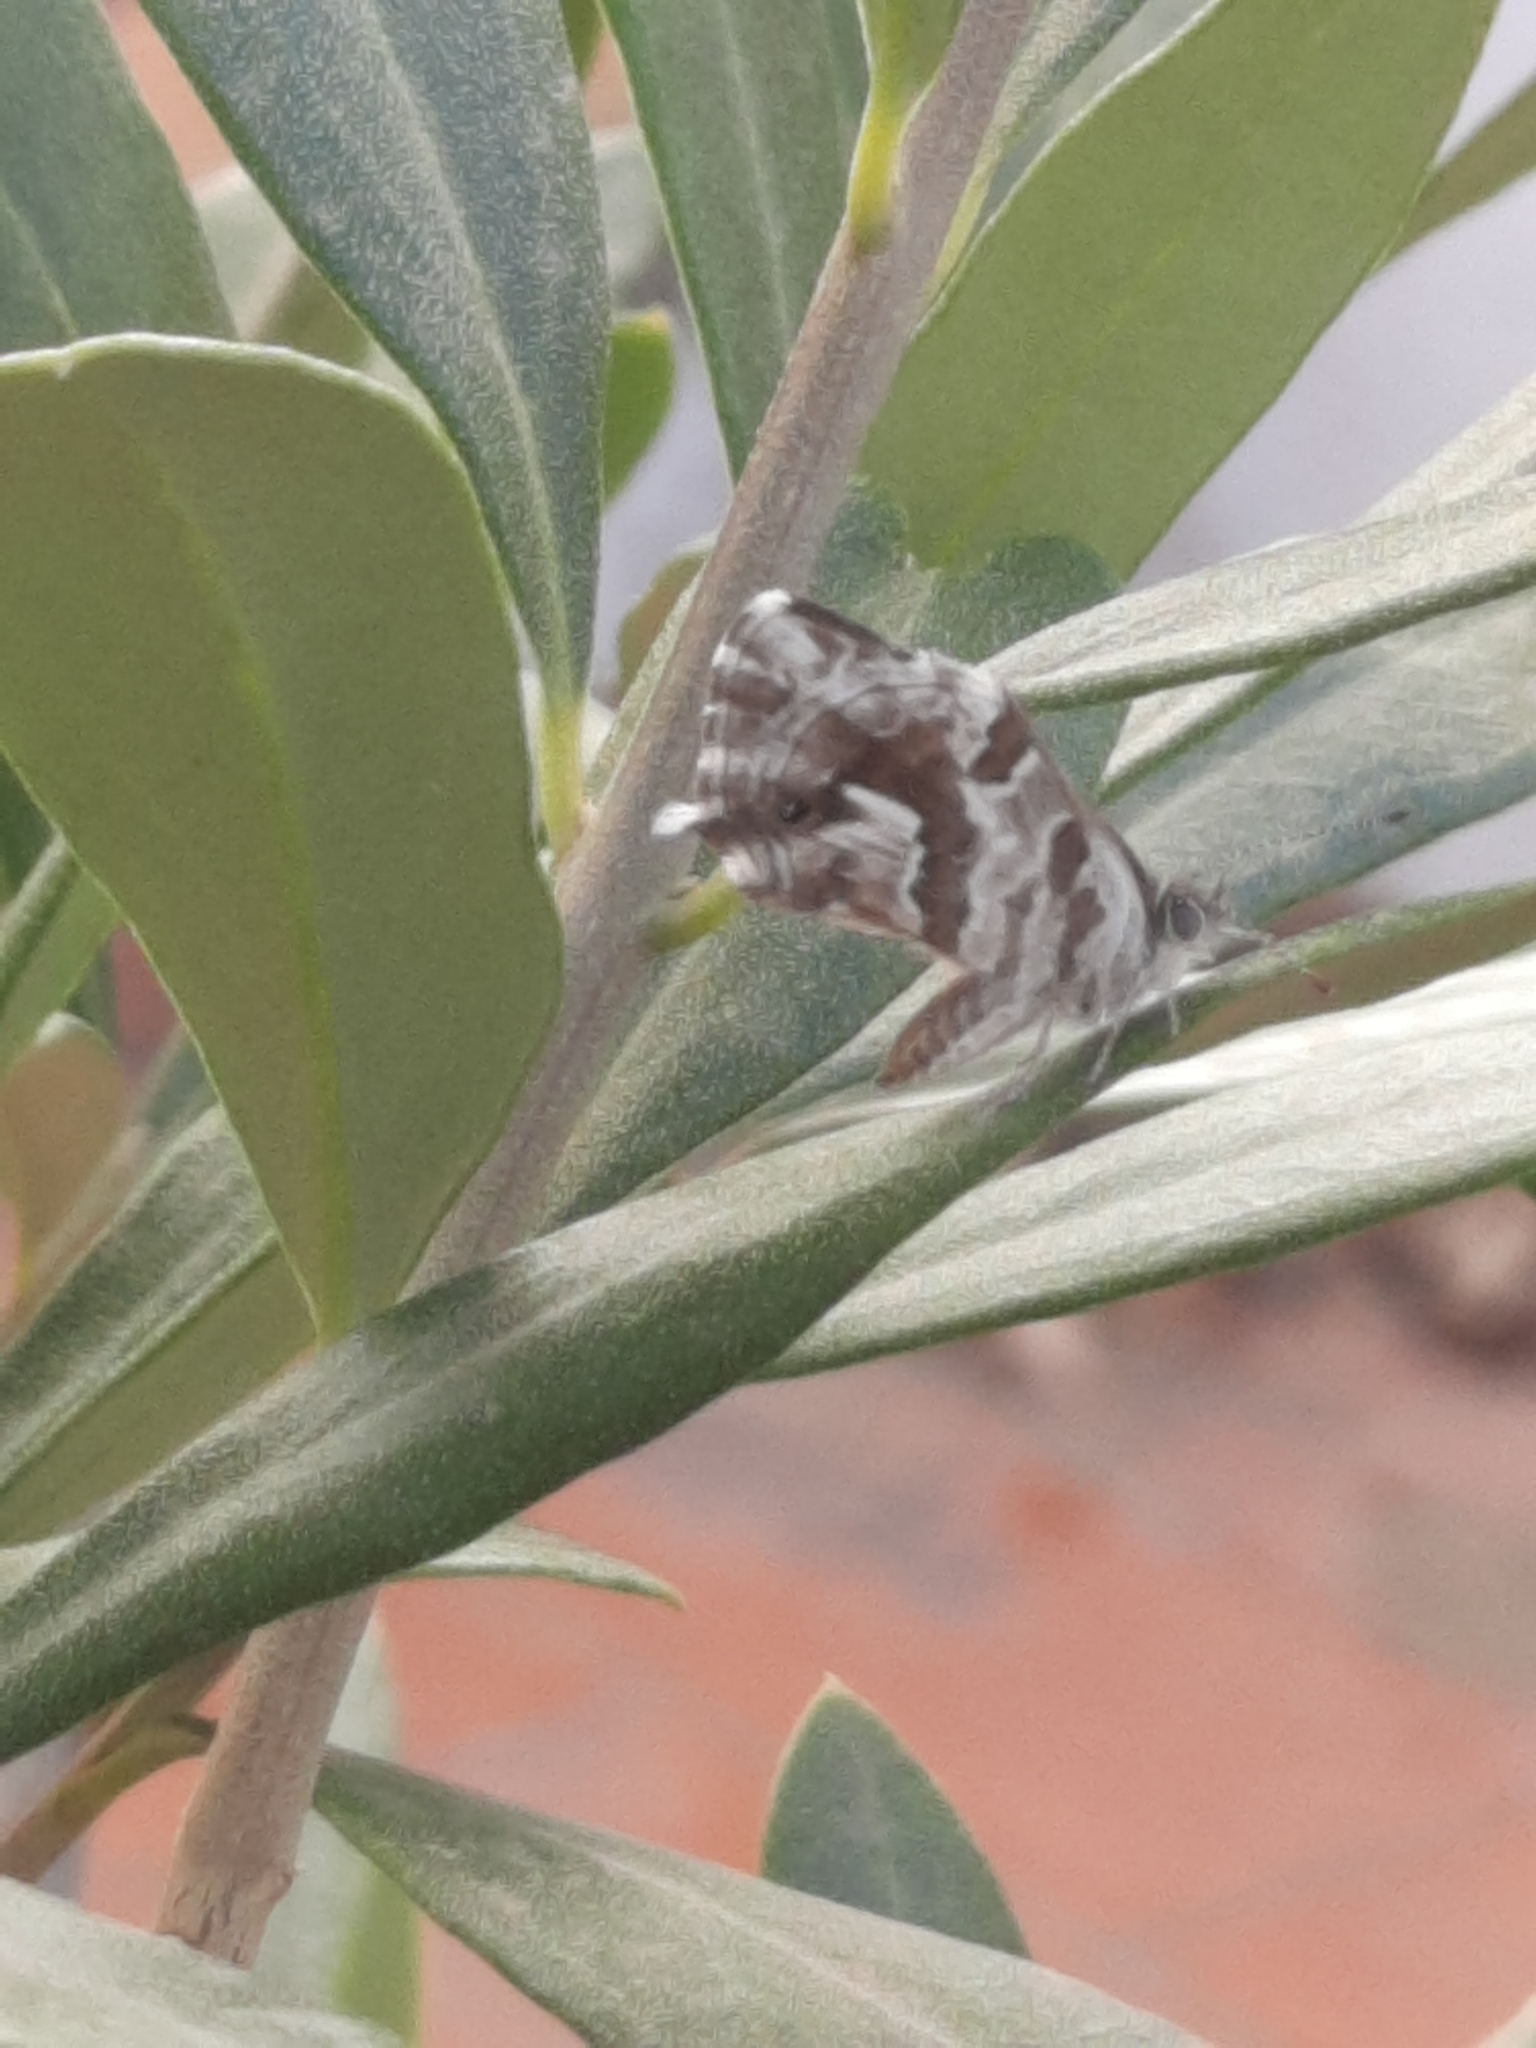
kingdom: Animalia
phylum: Arthropoda
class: Insecta
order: Lepidoptera
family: Lycaenidae
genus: Cacyreus
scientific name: Cacyreus marshalli
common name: Geranium bronze
